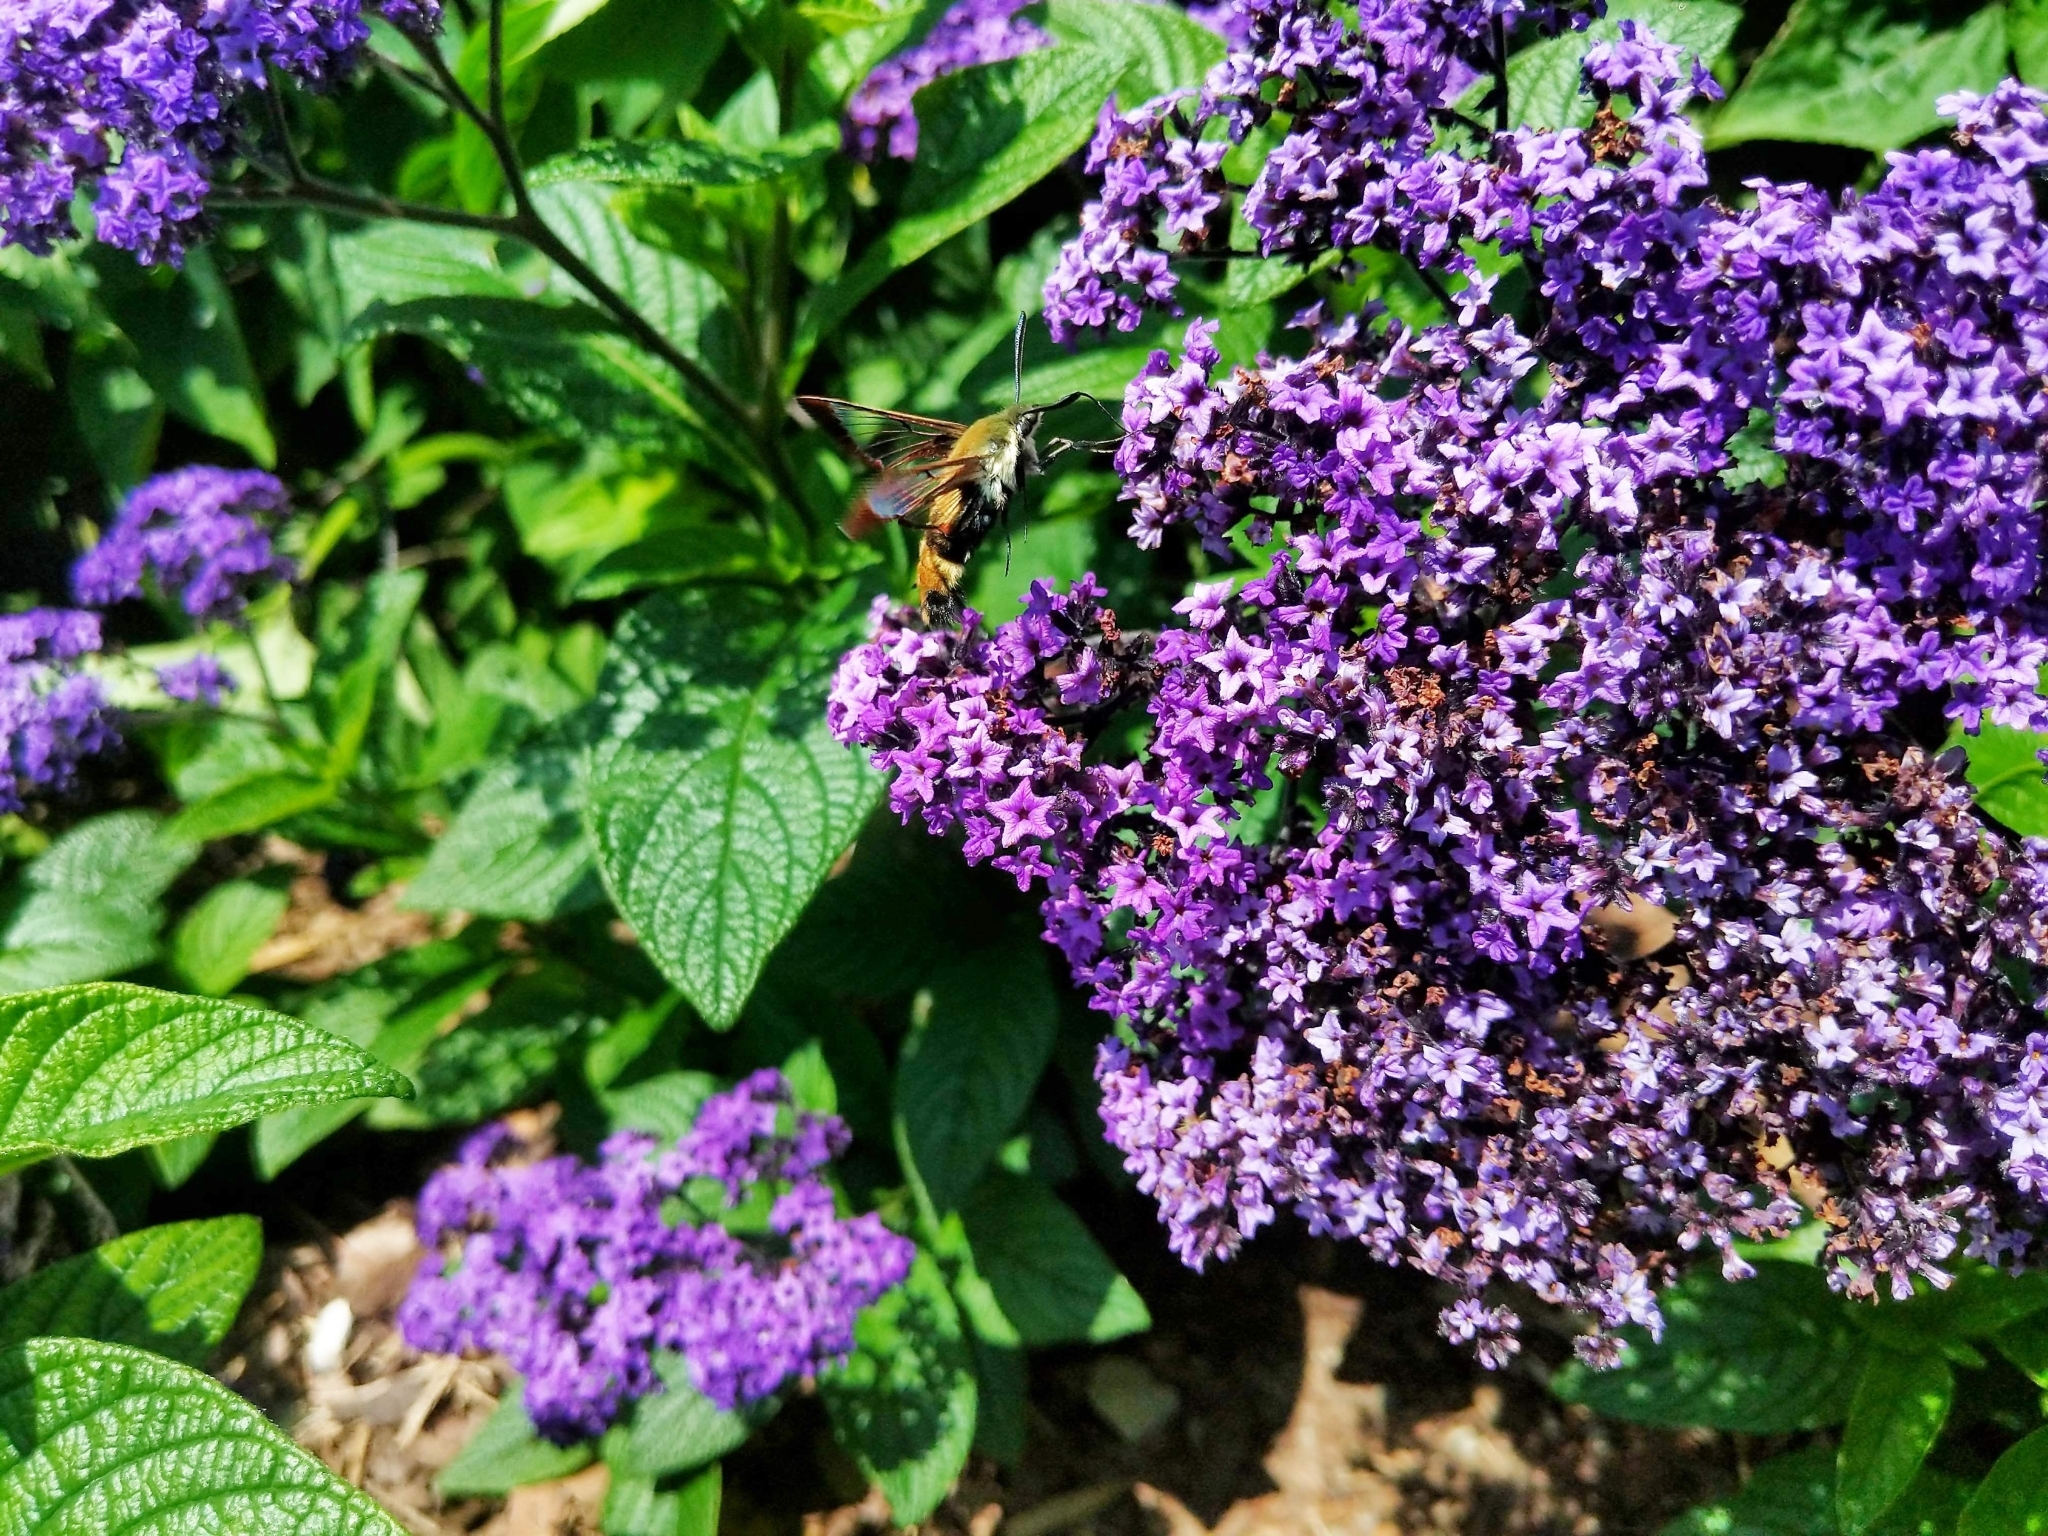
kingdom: Animalia
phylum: Arthropoda
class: Insecta
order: Lepidoptera
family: Sphingidae
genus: Hemaris
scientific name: Hemaris diffinis
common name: Bumblebee moth
